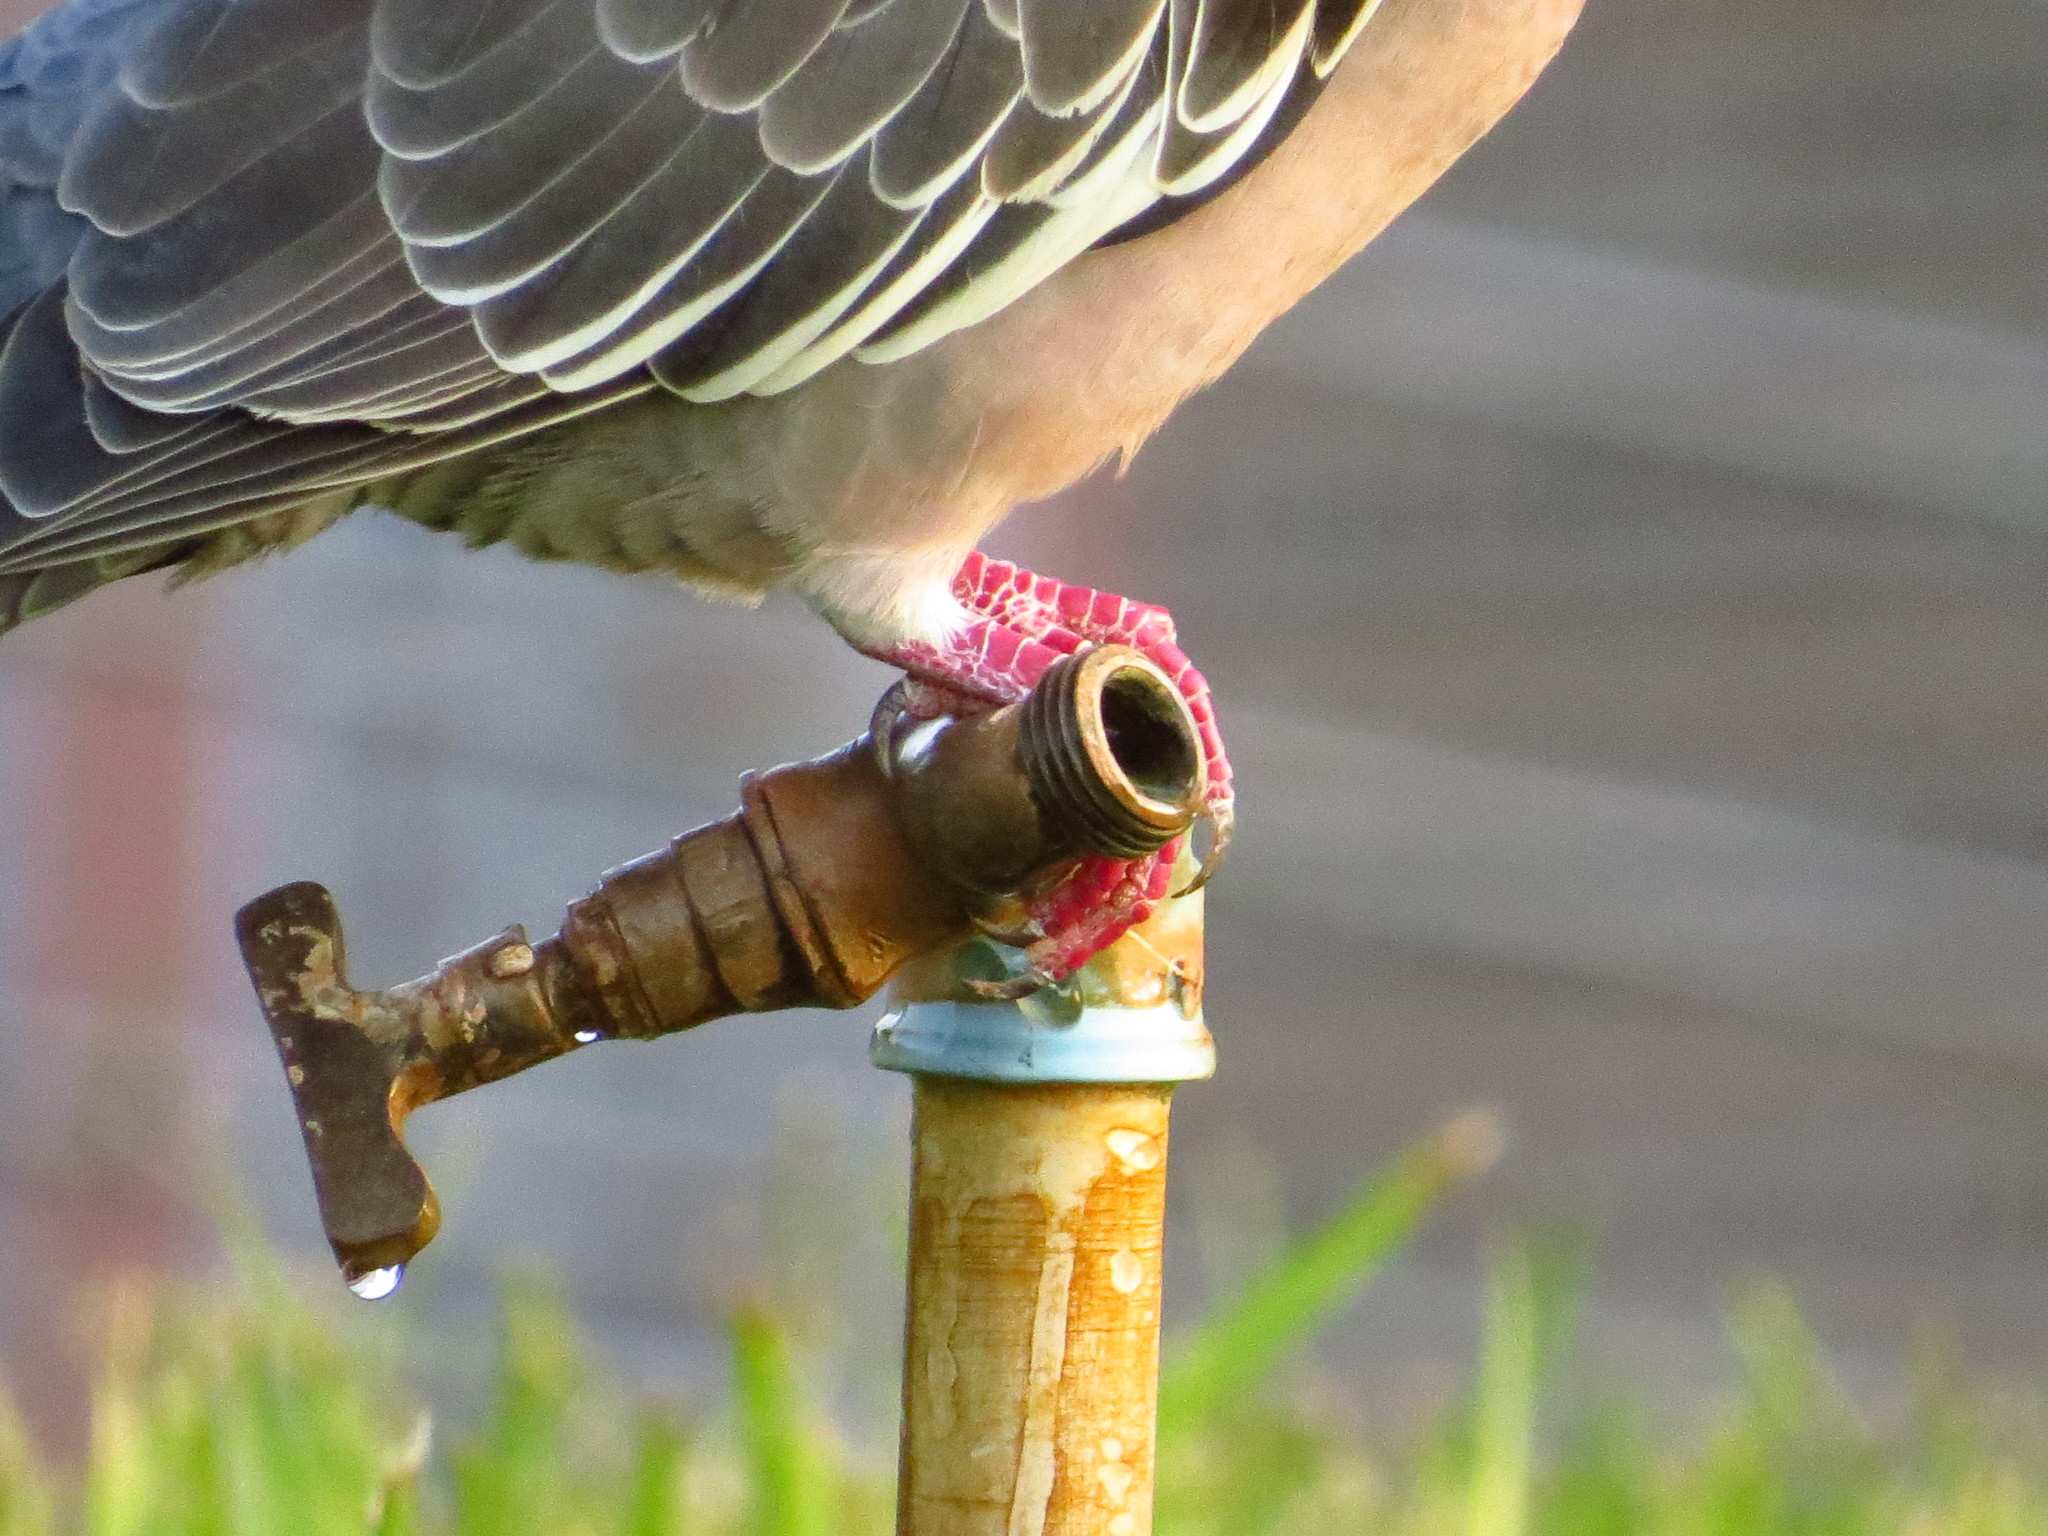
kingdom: Animalia
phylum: Chordata
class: Aves
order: Columbiformes
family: Columbidae
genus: Patagioenas
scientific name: Patagioenas picazuro
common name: Picazuro pigeon
